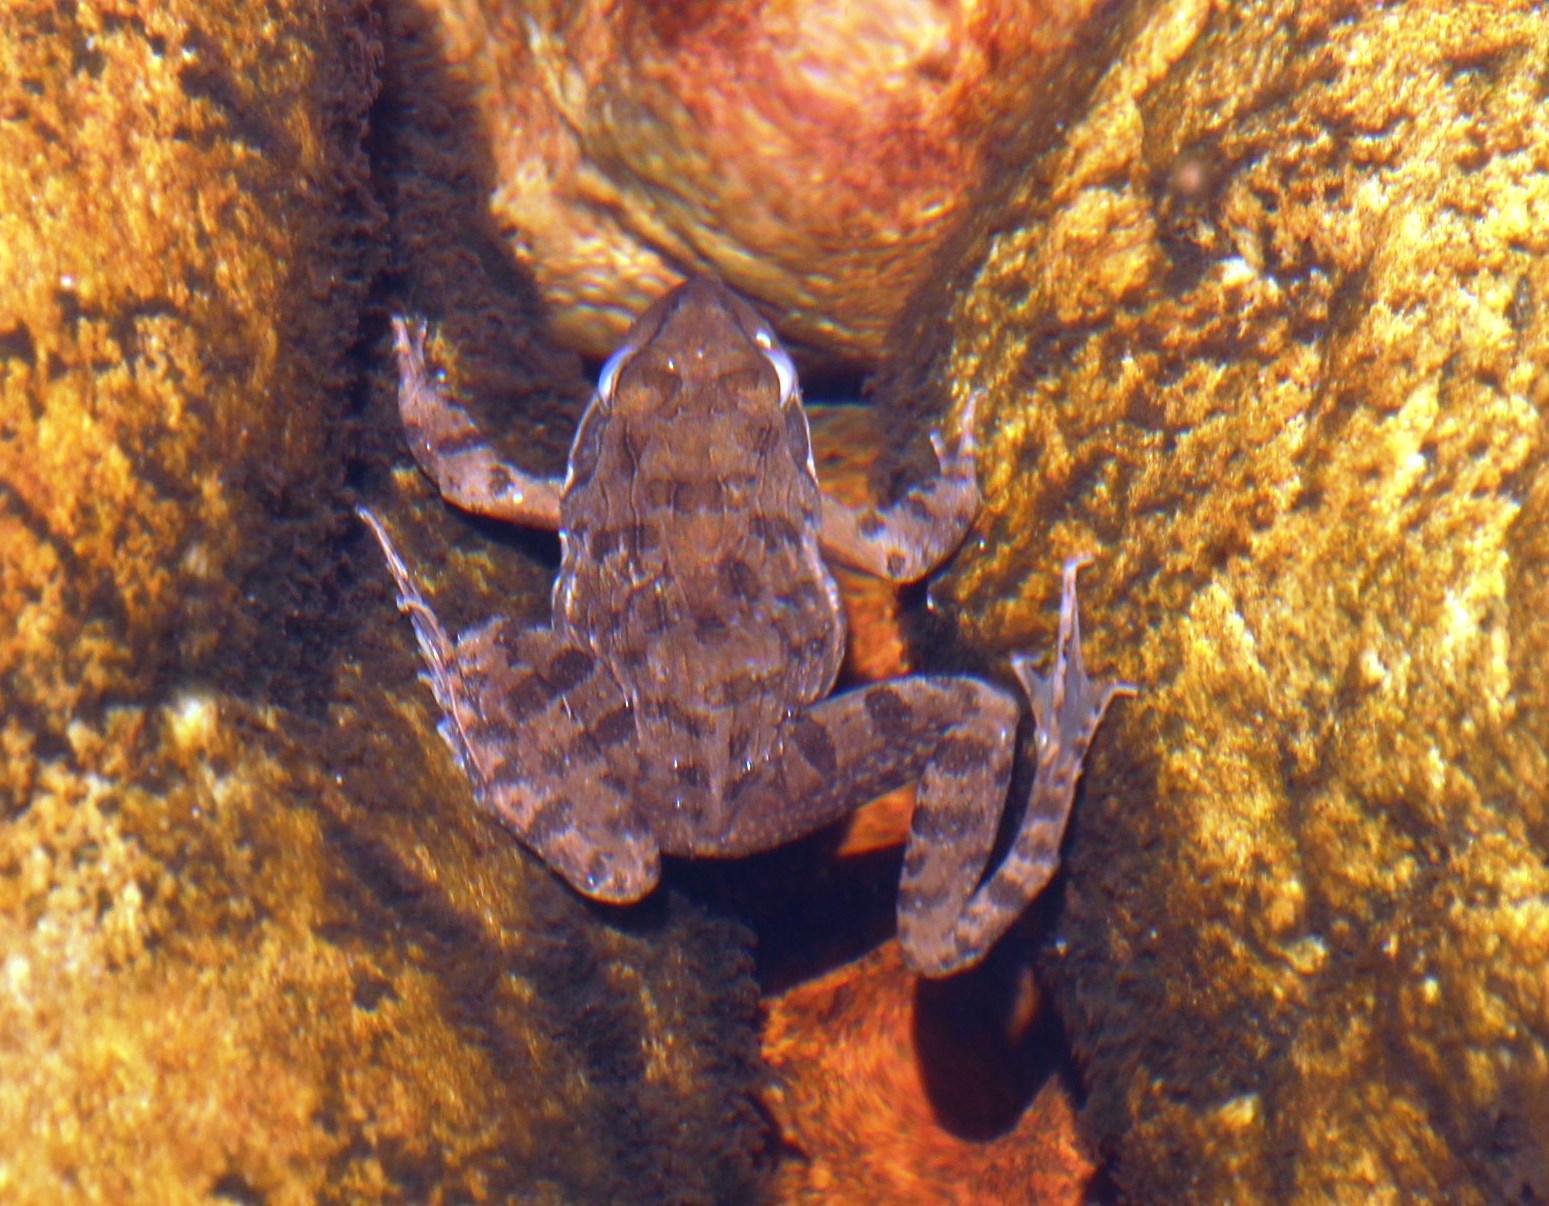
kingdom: Animalia
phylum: Chordata
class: Amphibia
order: Anura
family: Pyxicephalidae
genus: Amietia
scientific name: Amietia fuscigula
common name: Cape rana
